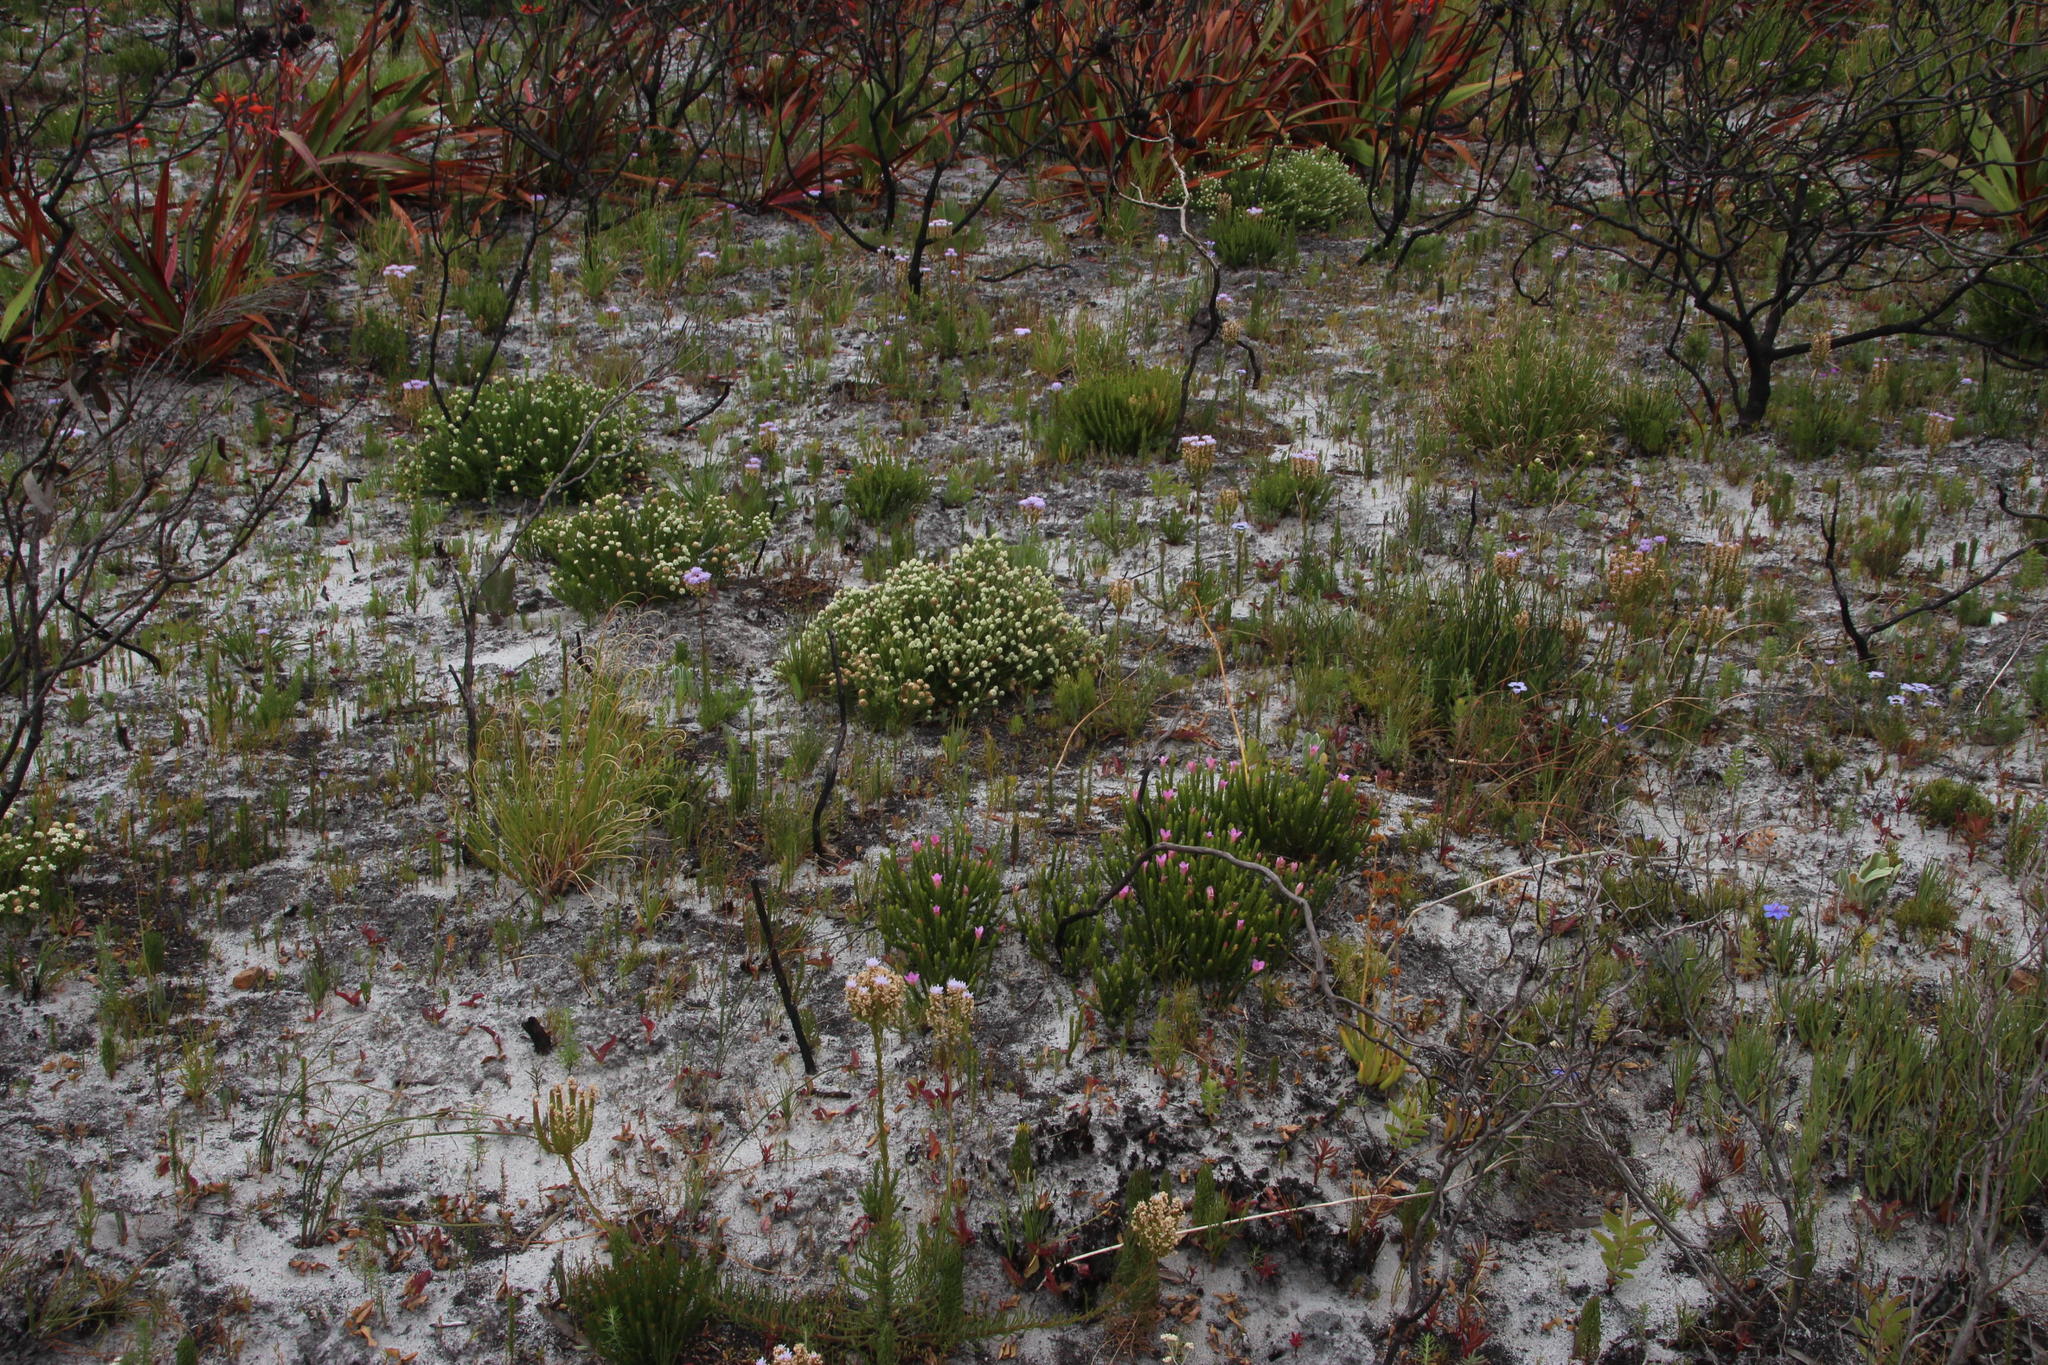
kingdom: Plantae
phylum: Tracheophyta
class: Magnoliopsida
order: Malvales
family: Thymelaeaceae
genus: Lachnaea
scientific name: Lachnaea grandiflora
